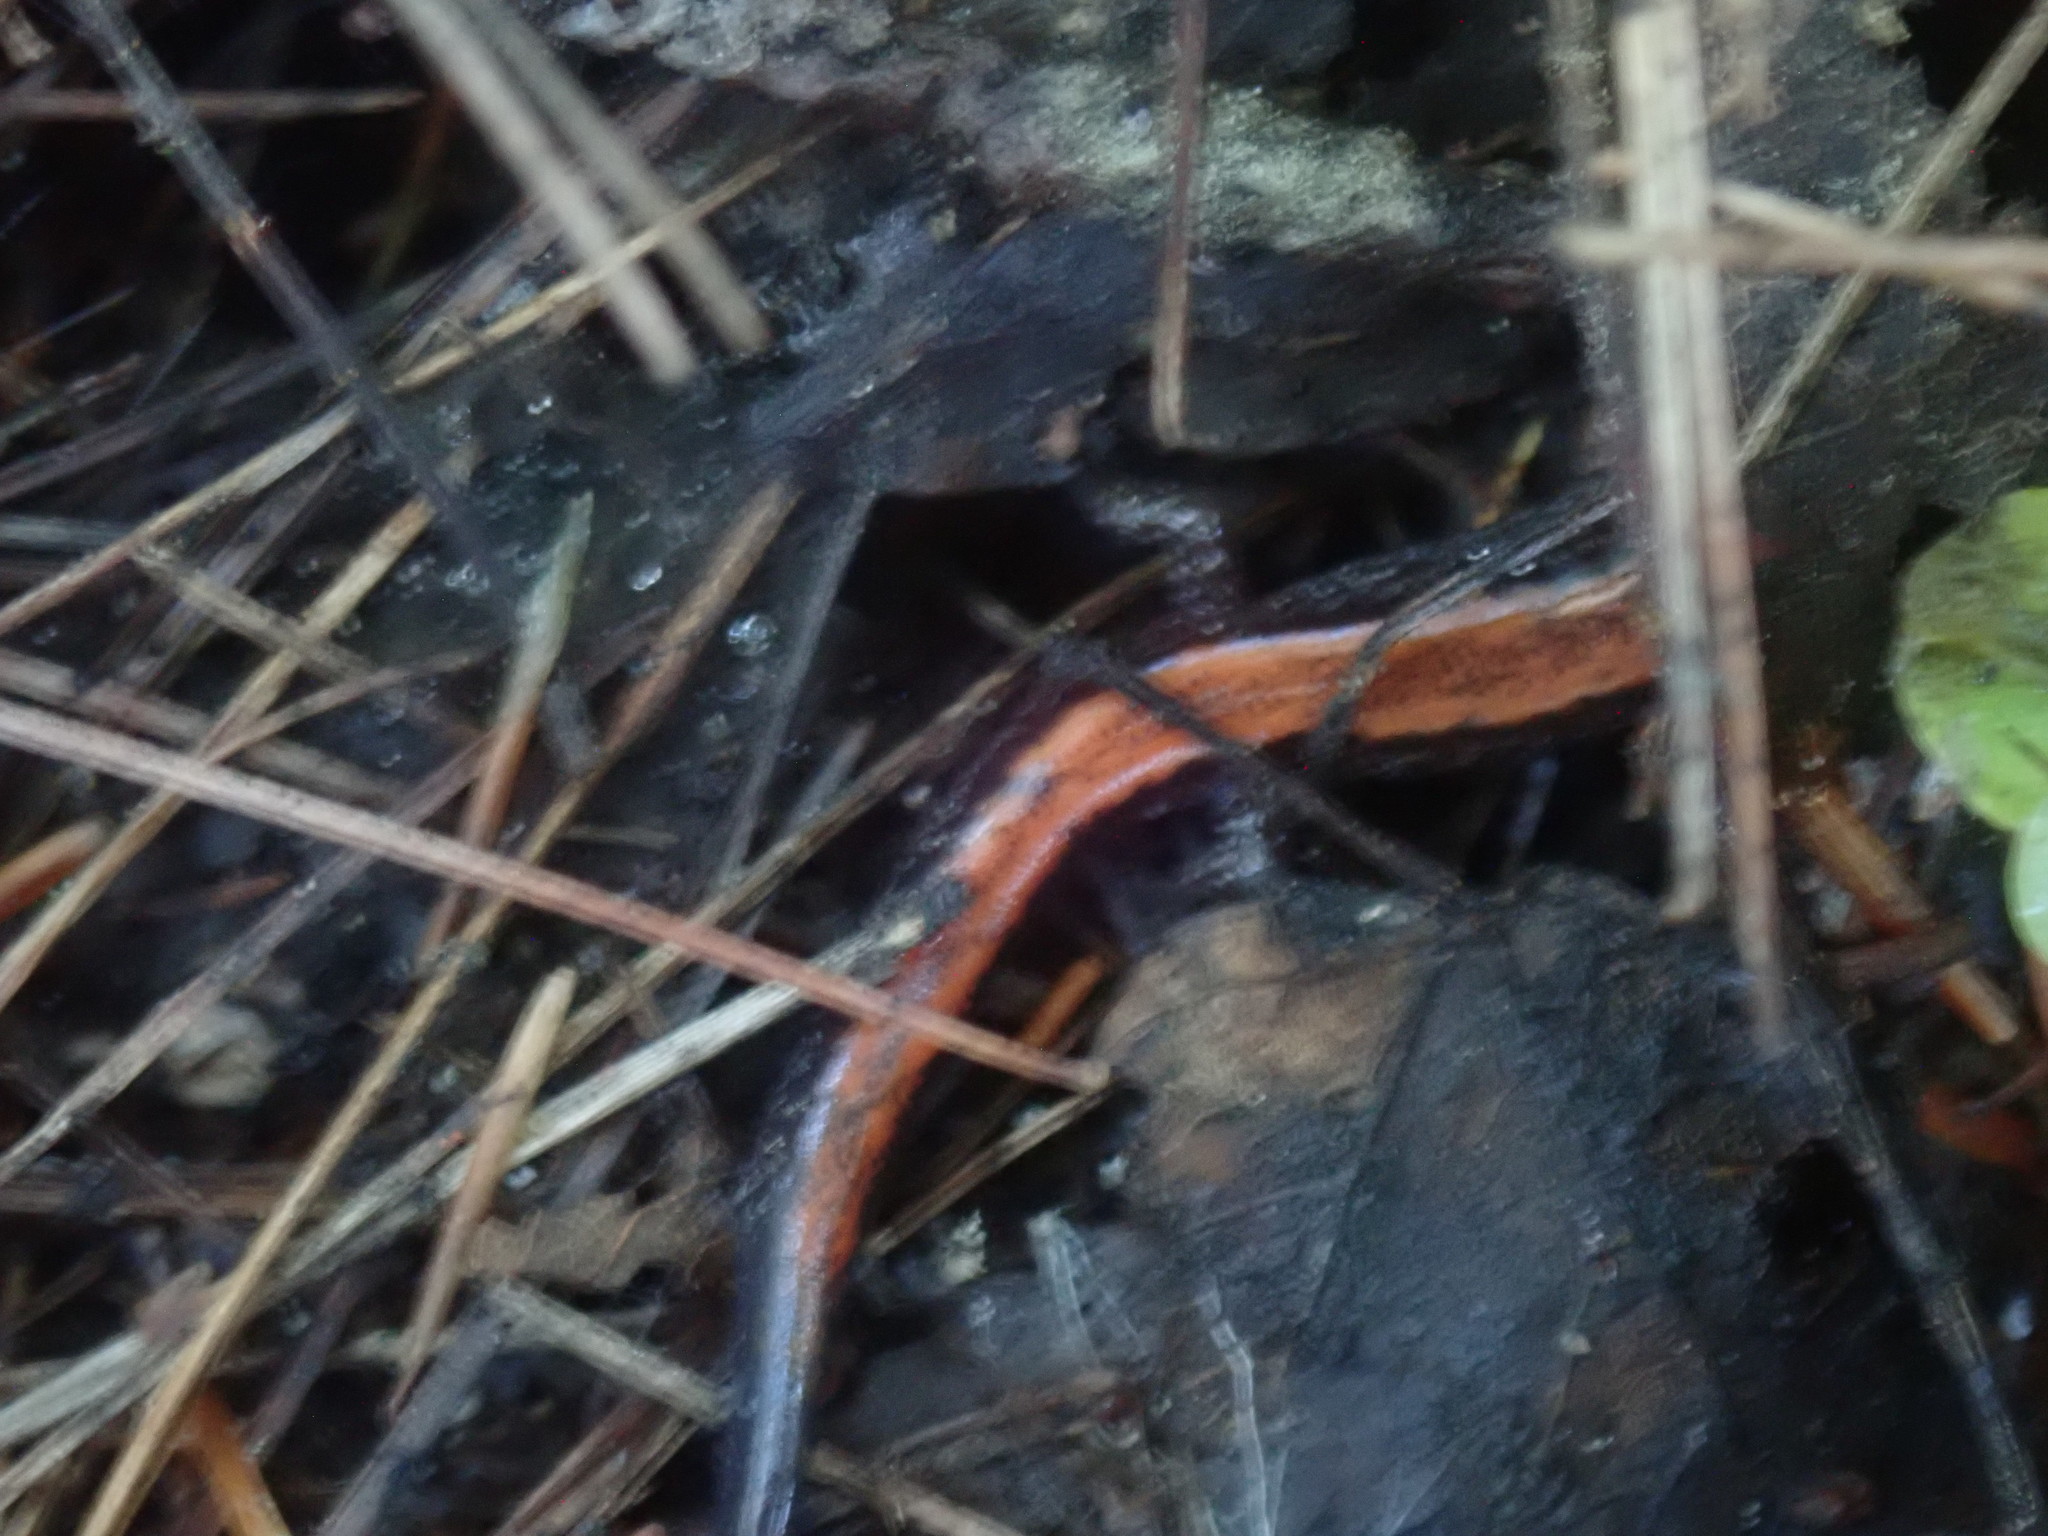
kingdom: Animalia
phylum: Chordata
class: Amphibia
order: Caudata
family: Plethodontidae
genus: Plethodon
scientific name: Plethodon cinereus
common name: Redback salamander
